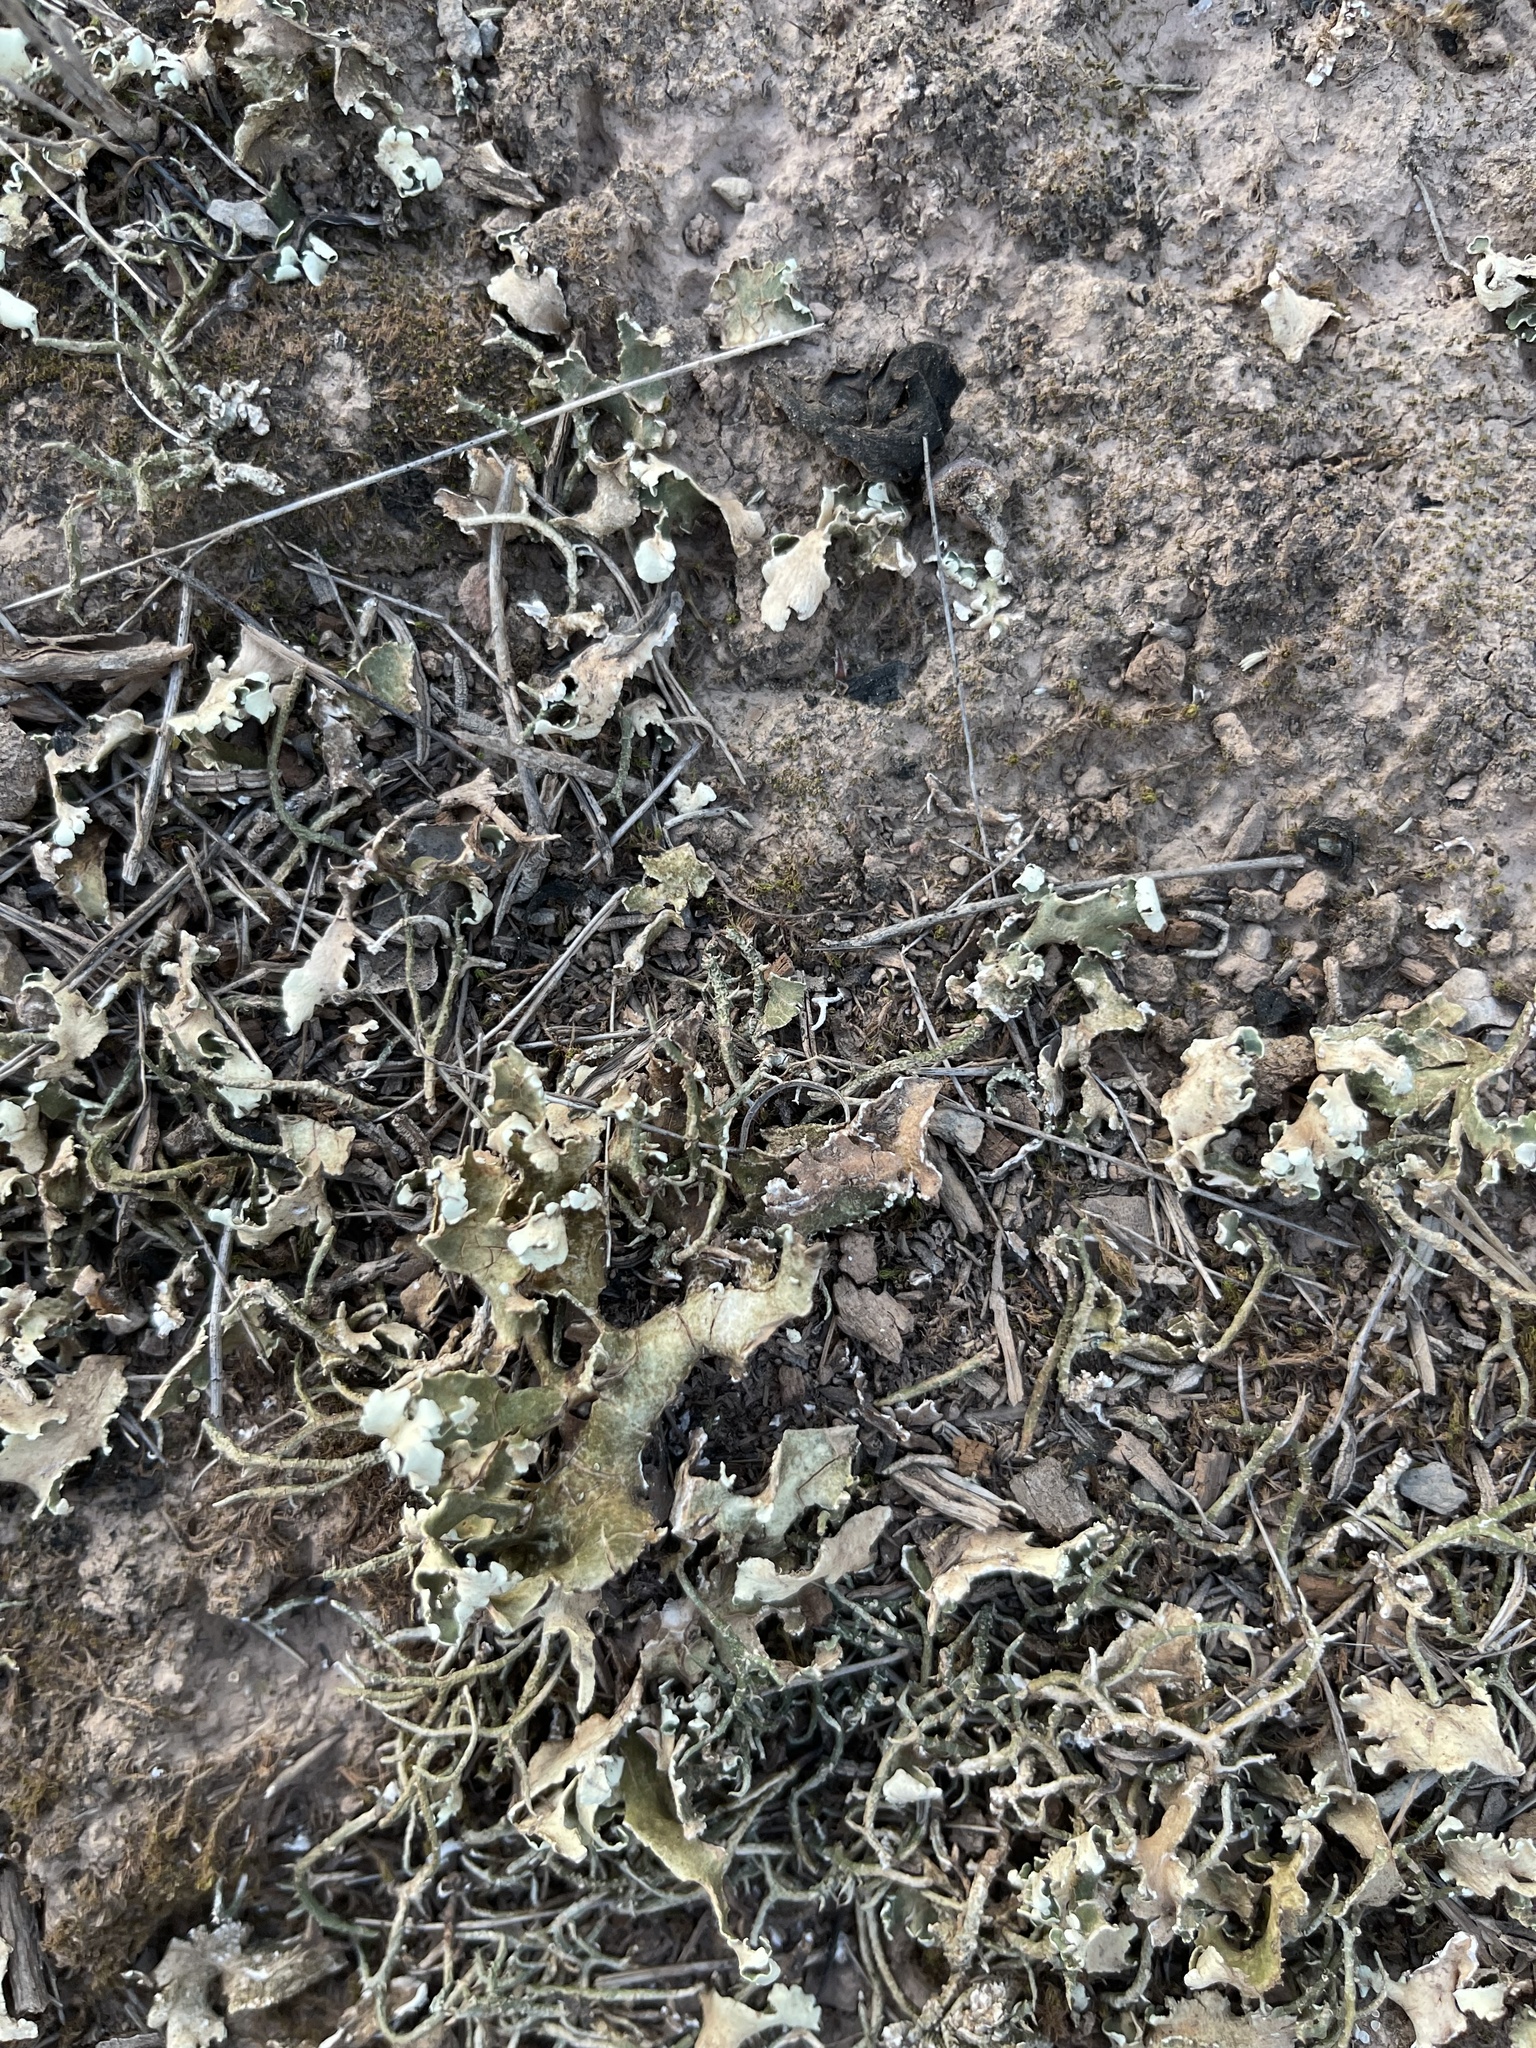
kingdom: Fungi
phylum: Ascomycota
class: Lecanoromycetes
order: Lecanorales
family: Cladoniaceae
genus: Cladonia
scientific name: Cladonia foliacea
